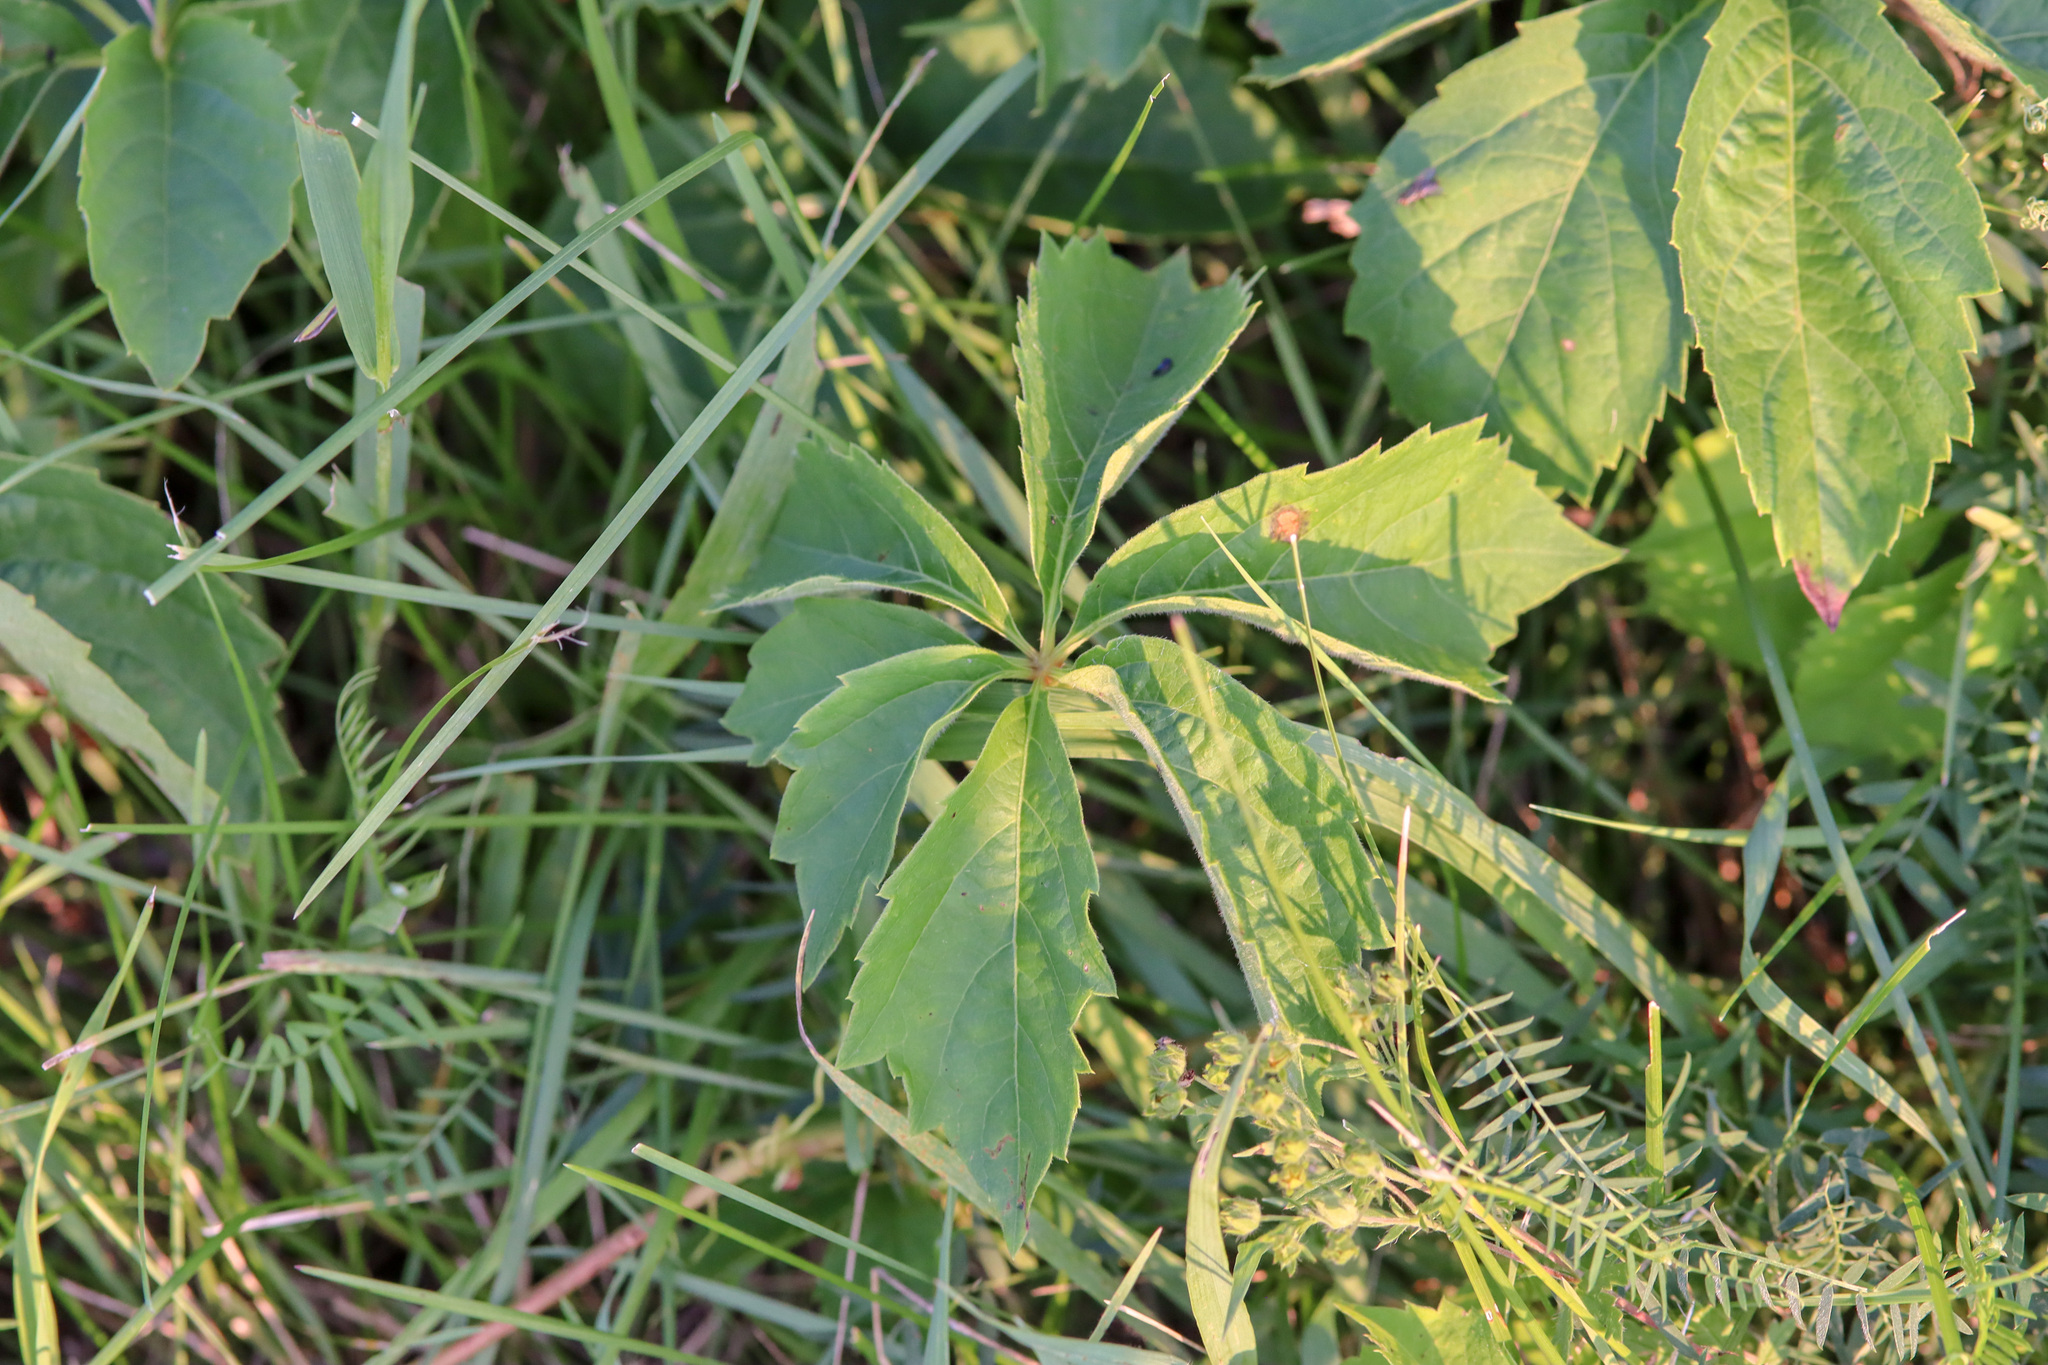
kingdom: Plantae
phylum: Tracheophyta
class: Magnoliopsida
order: Vitales
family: Vitaceae
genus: Parthenocissus
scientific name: Parthenocissus inserta
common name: False virginia-creeper
